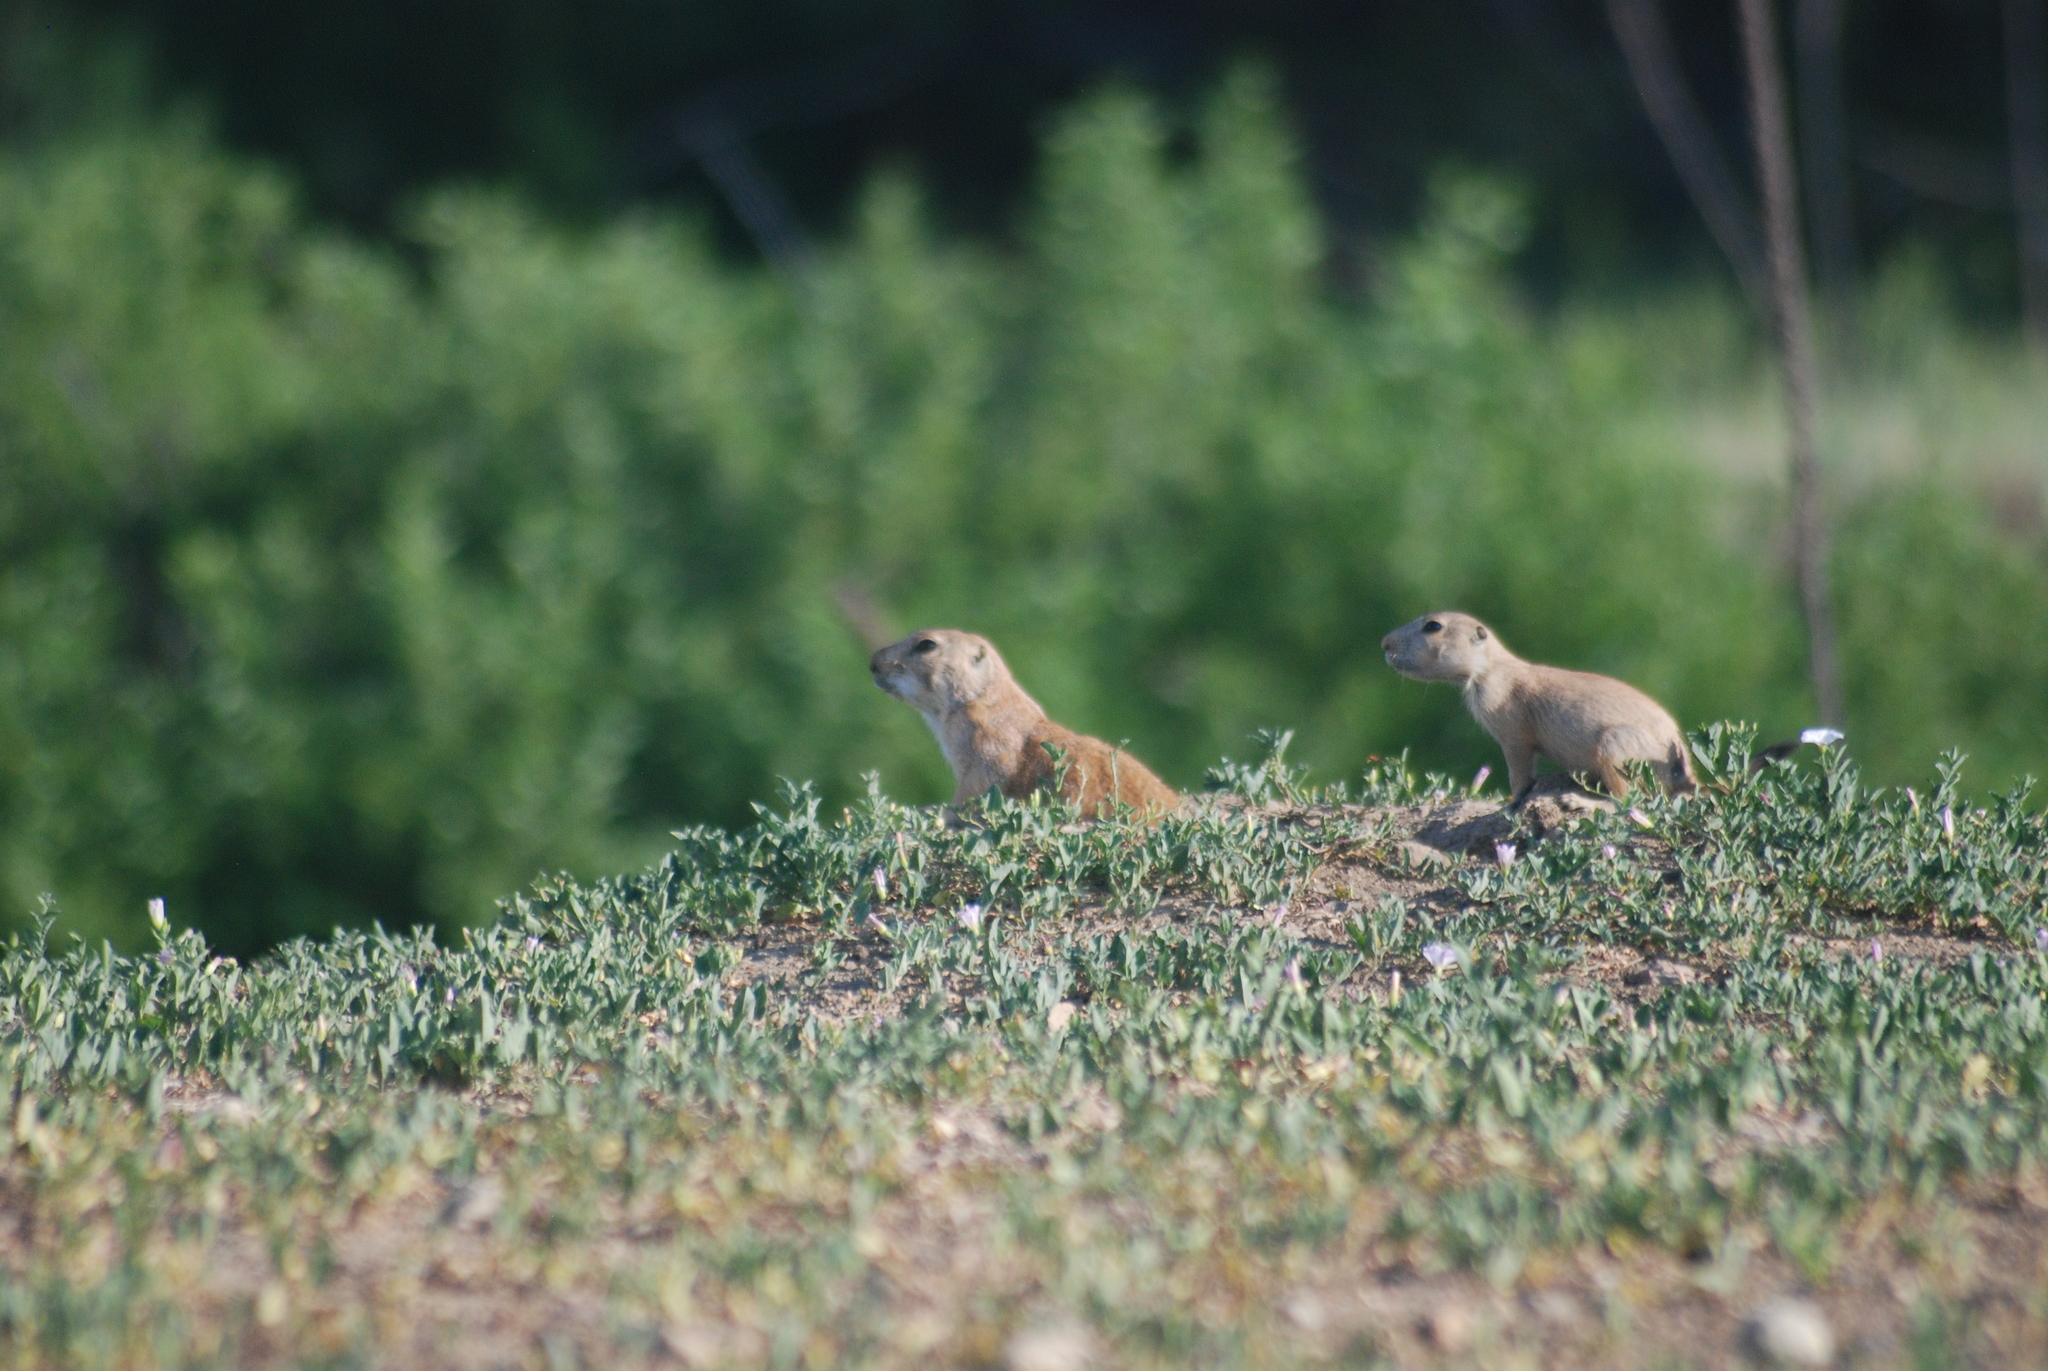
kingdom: Animalia
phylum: Chordata
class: Mammalia
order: Rodentia
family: Sciuridae
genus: Cynomys
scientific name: Cynomys ludovicianus
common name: Black-tailed prairie dog
